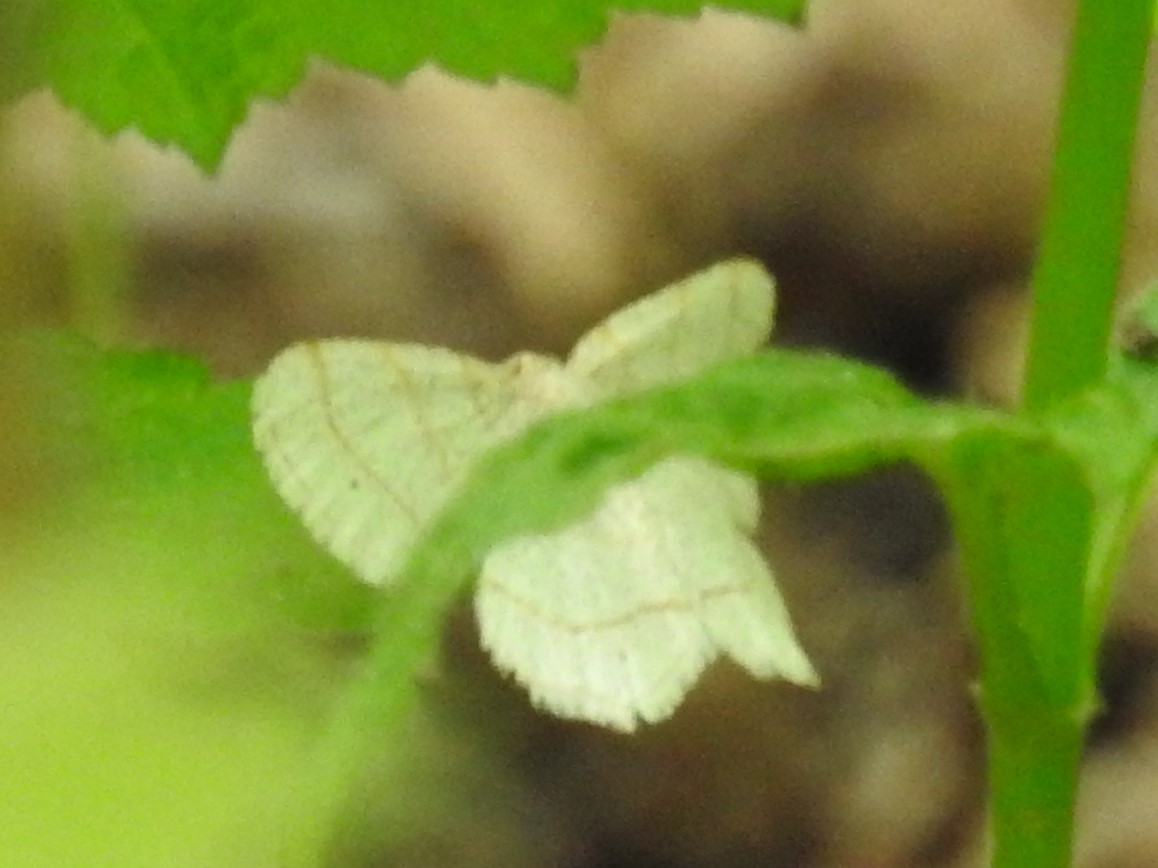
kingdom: Animalia
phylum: Arthropoda
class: Insecta
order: Lepidoptera
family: Geometridae
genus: Trigrammia
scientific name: Trigrammia quadrinotaria
